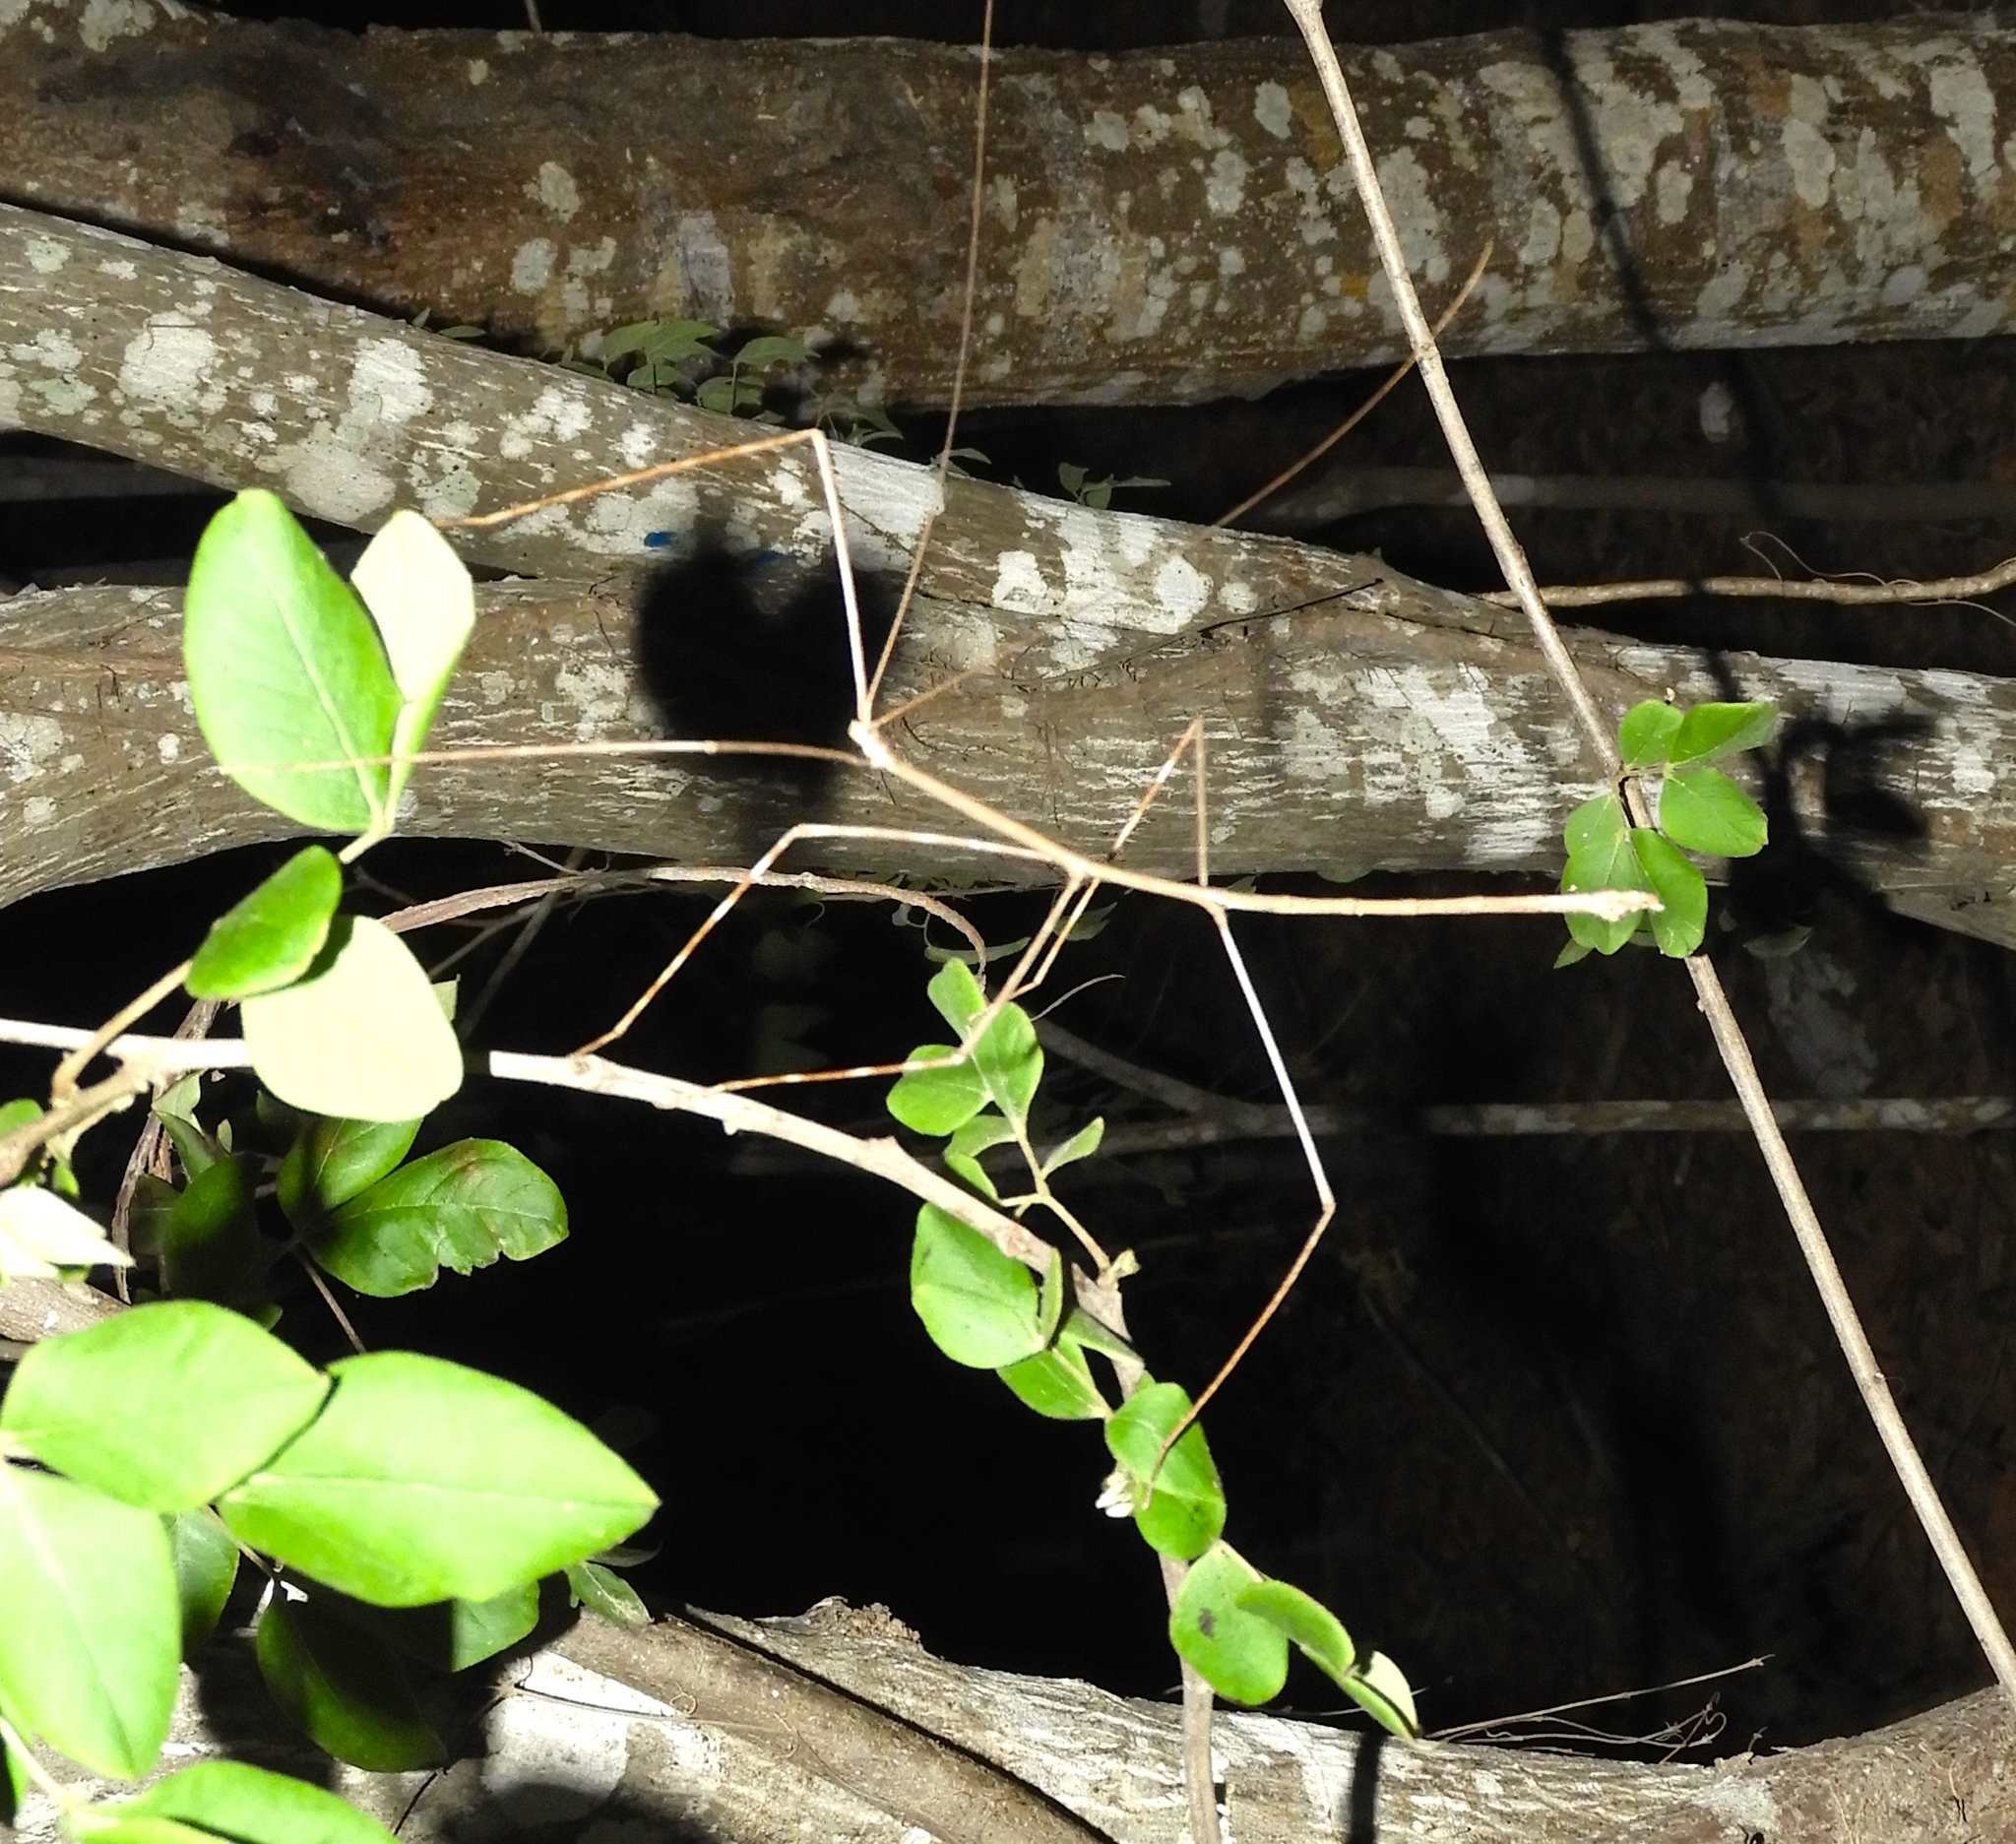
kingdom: Animalia
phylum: Arthropoda
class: Insecta
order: Phasmida
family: Diapheromeridae
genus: Phanocles
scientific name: Phanocles
